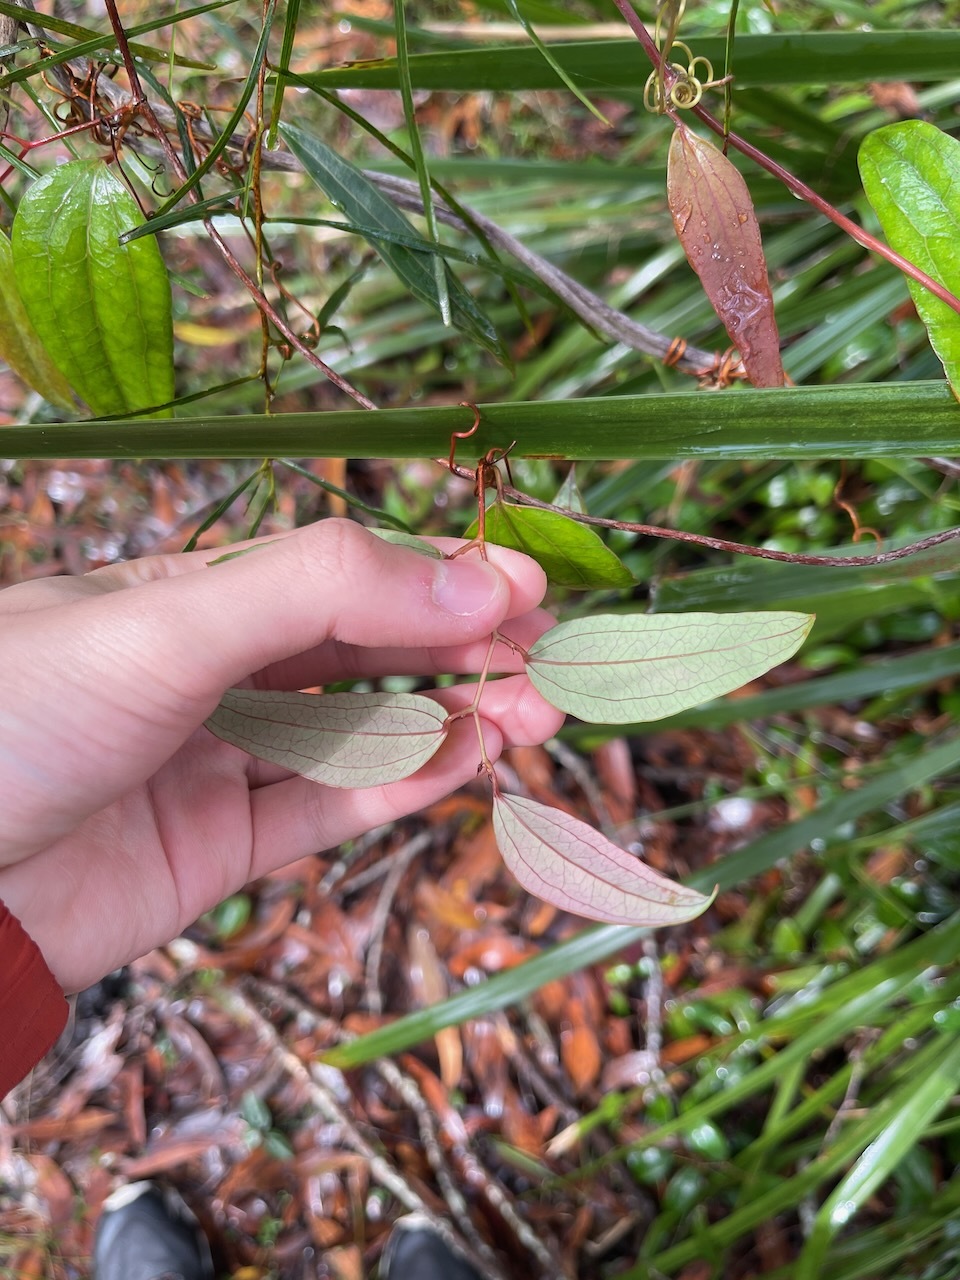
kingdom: Plantae
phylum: Tracheophyta
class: Liliopsida
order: Liliales
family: Smilacaceae
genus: Smilax
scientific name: Smilax glyciphylla
